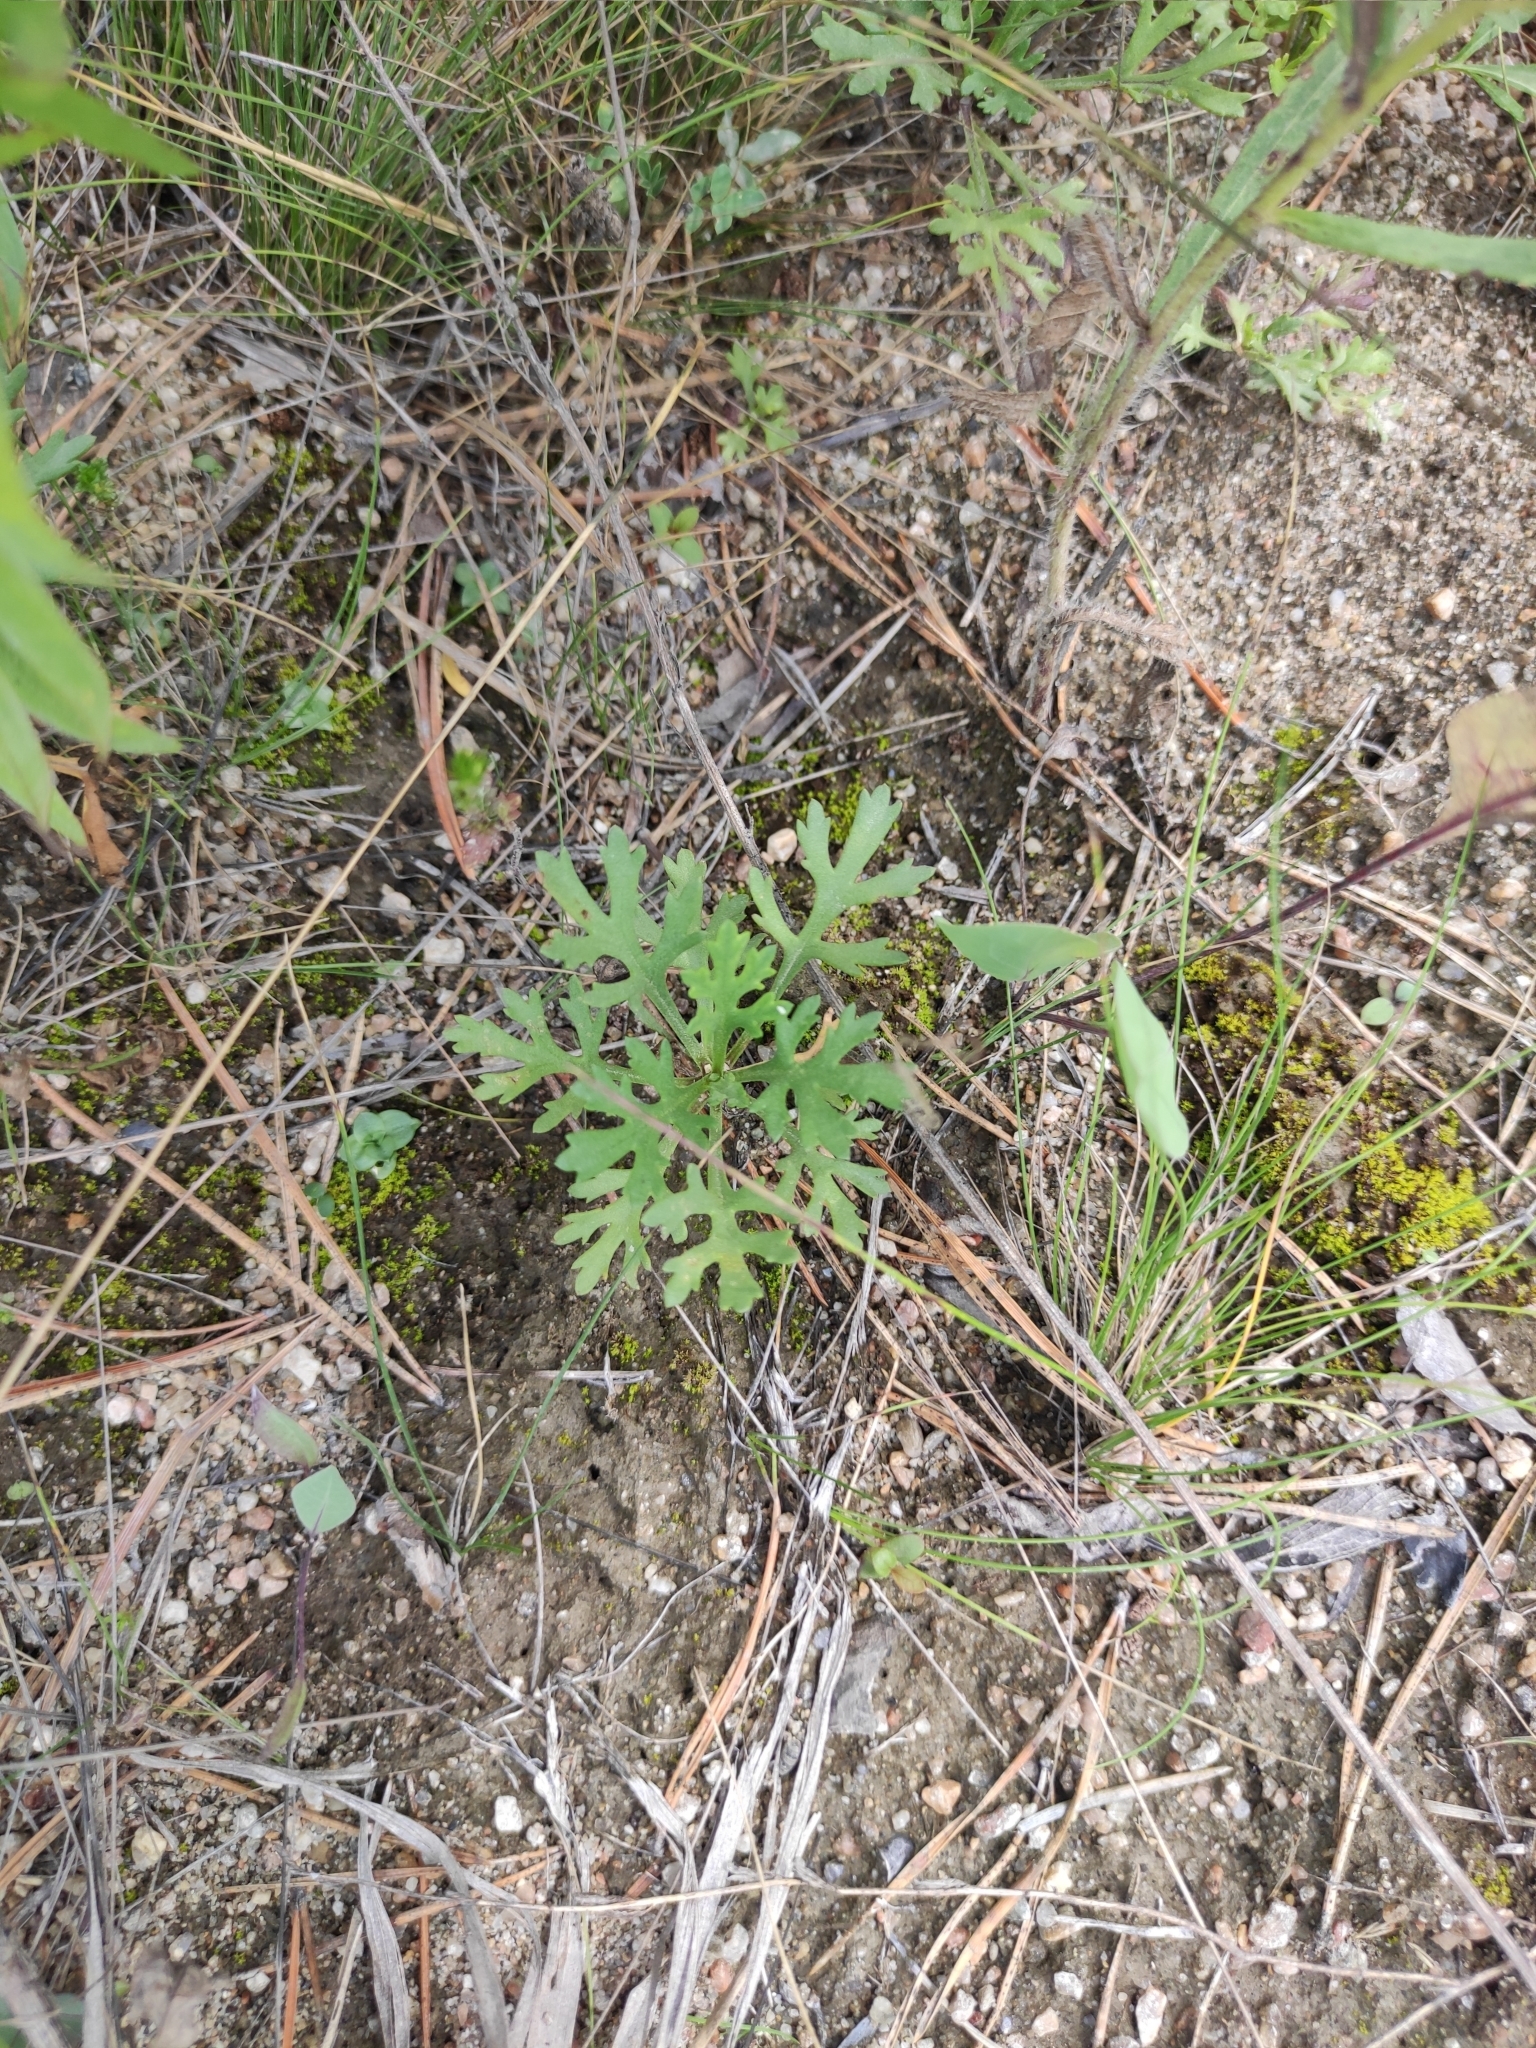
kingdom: Plantae
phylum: Tracheophyta
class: Magnoliopsida
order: Asterales
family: Asteraceae
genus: Chrysanthemum
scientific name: Chrysanthemum zawadzkii
